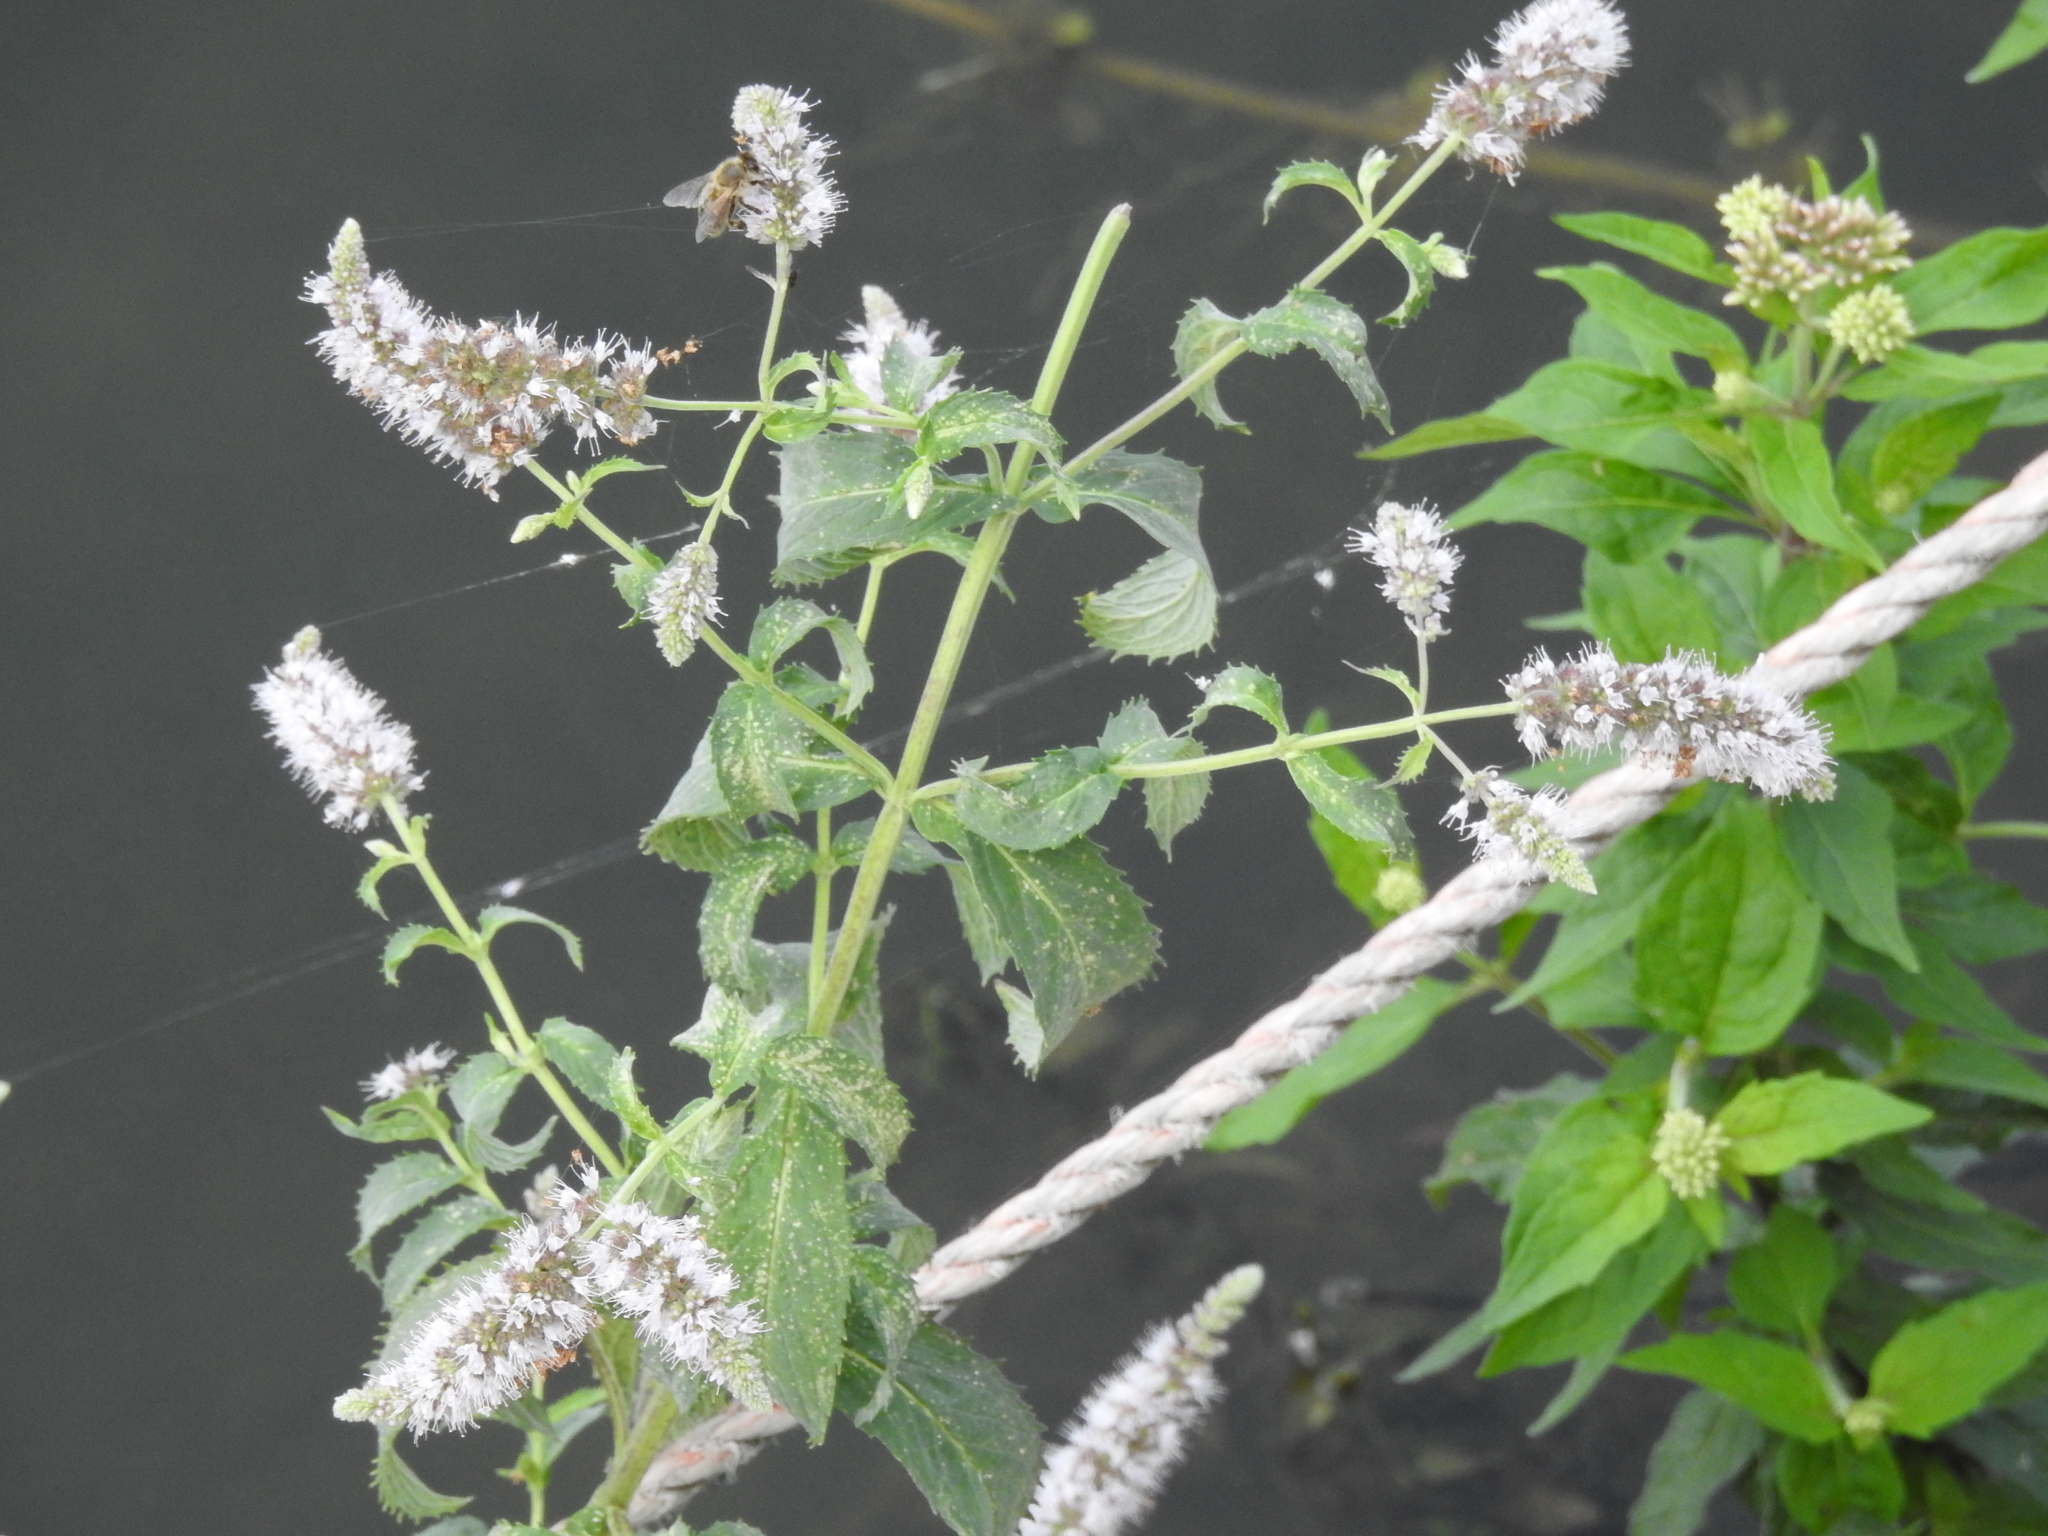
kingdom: Plantae
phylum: Tracheophyta
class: Magnoliopsida
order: Lamiales
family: Lamiaceae
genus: Mentha
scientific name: Mentha longifolia
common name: Horse mint
